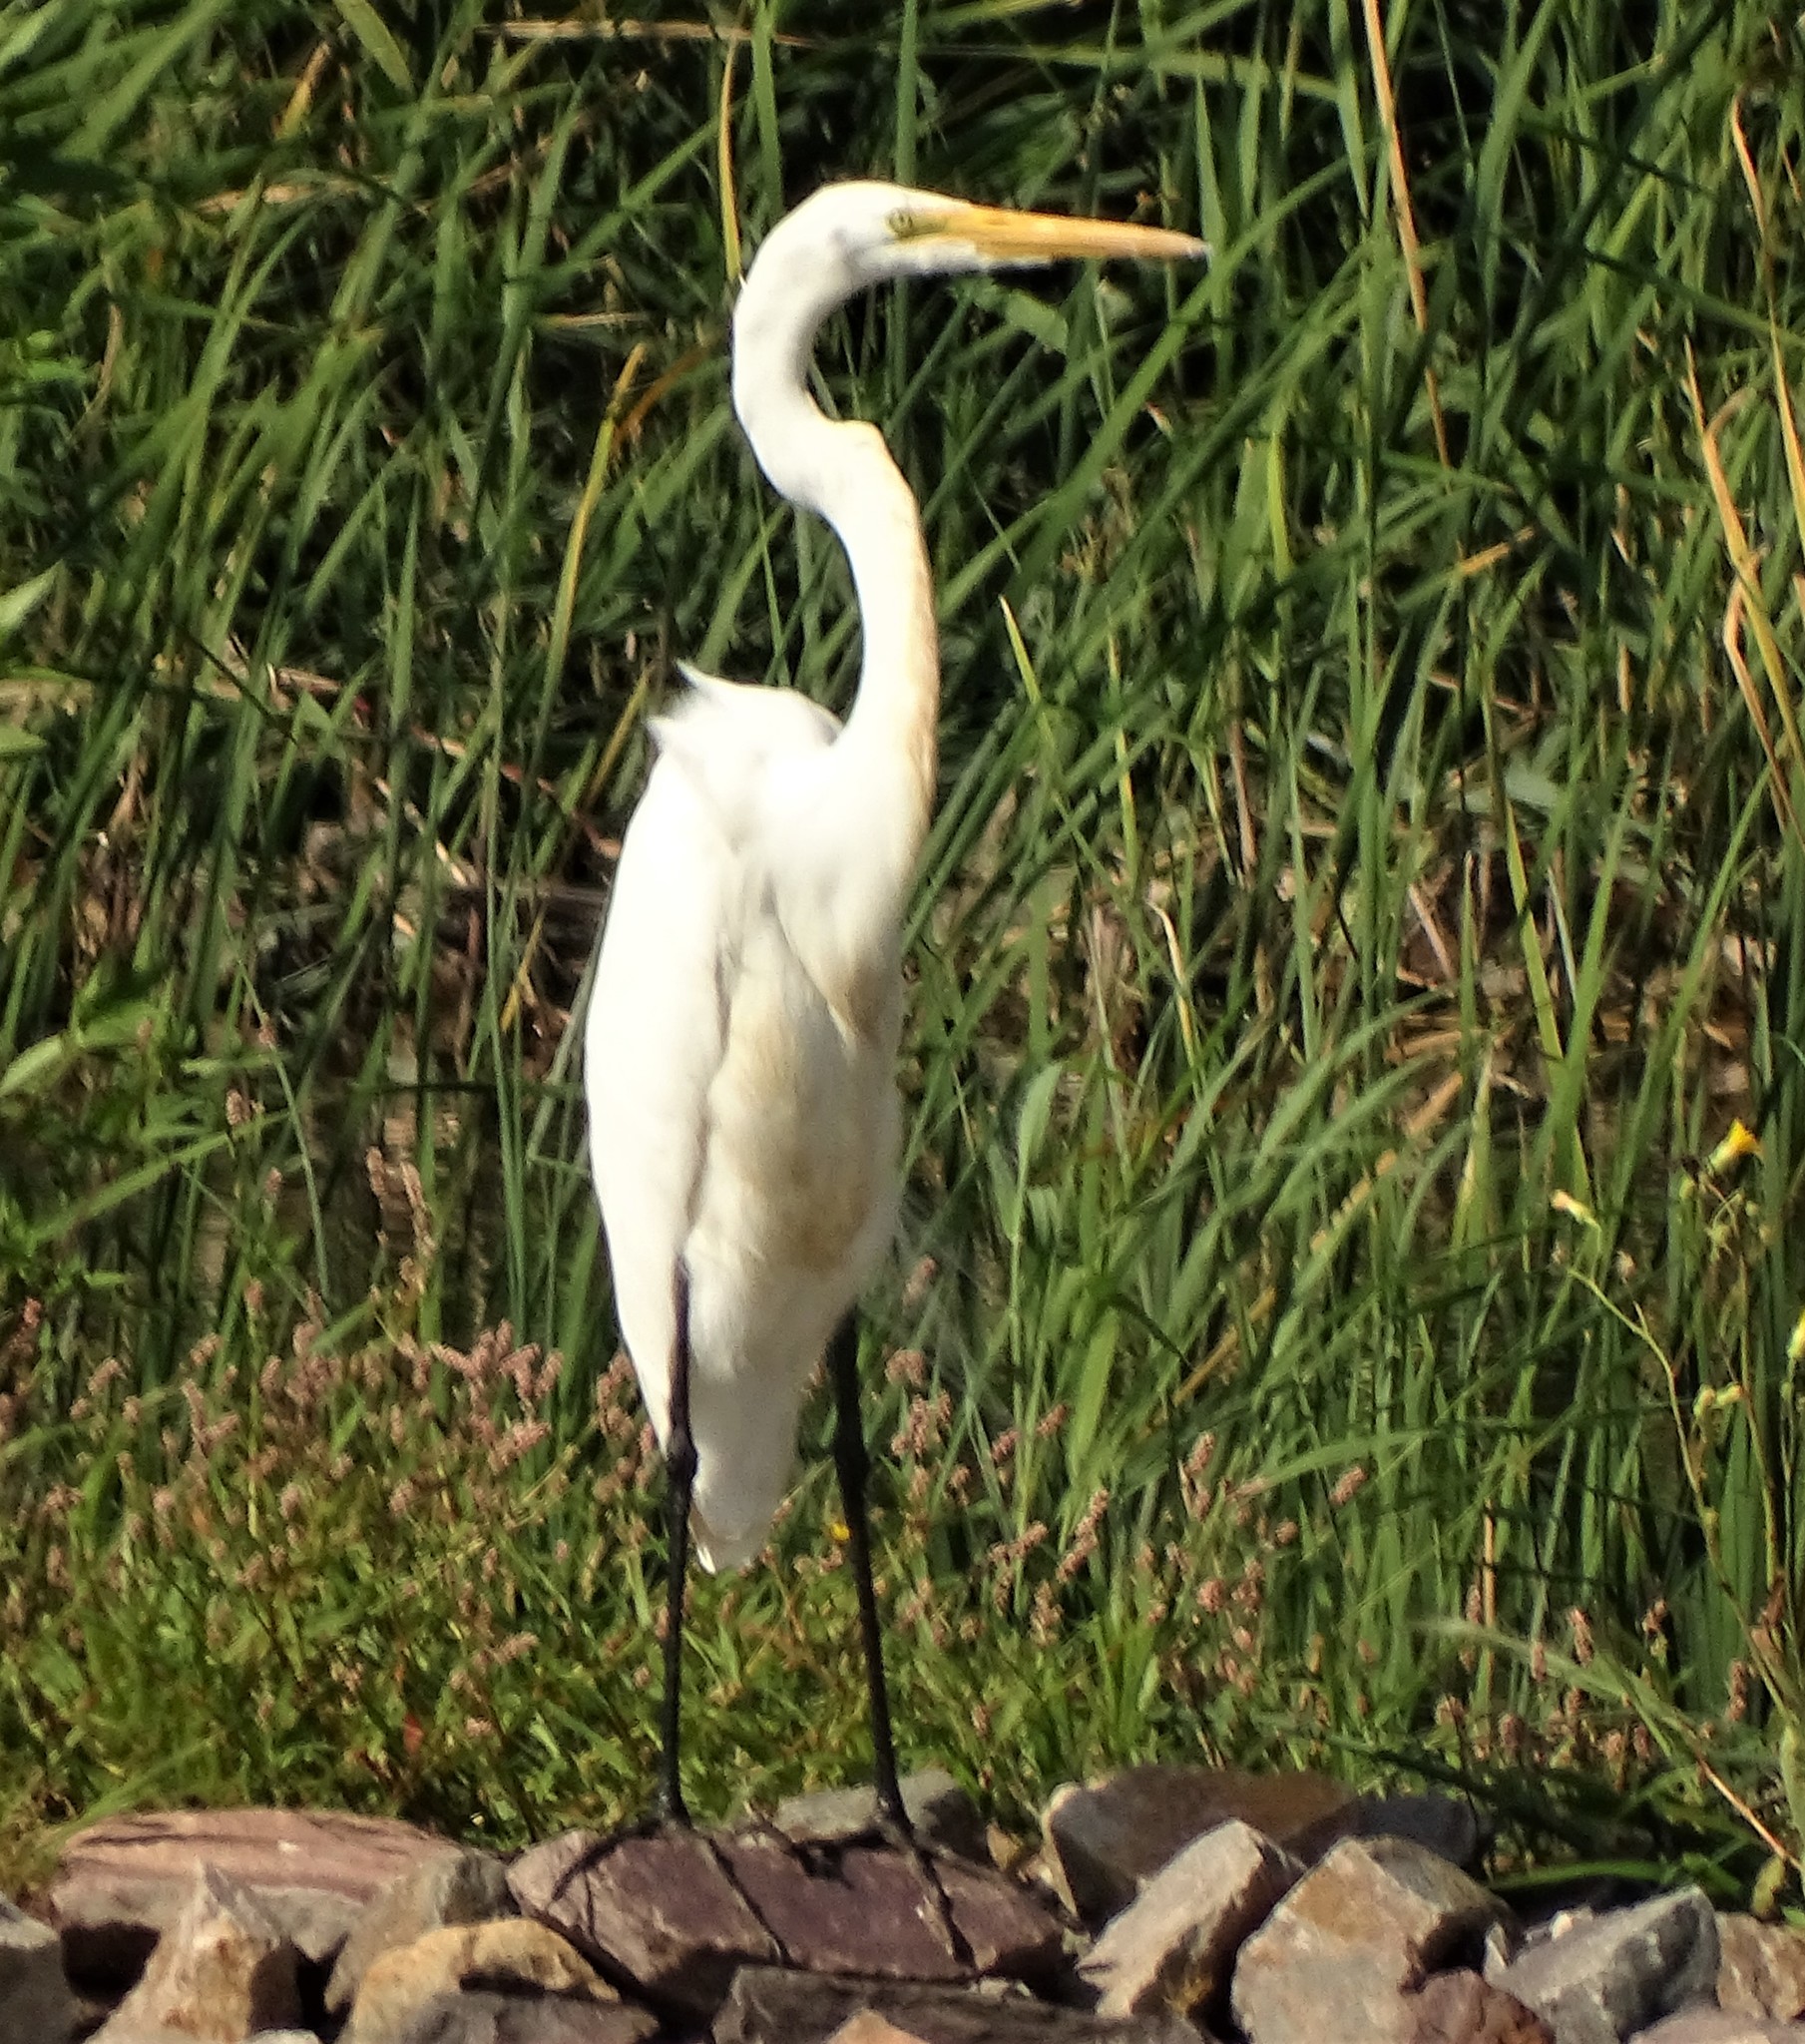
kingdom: Animalia
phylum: Chordata
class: Aves
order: Pelecaniformes
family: Ardeidae
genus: Ardea
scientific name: Ardea alba
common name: Great egret
